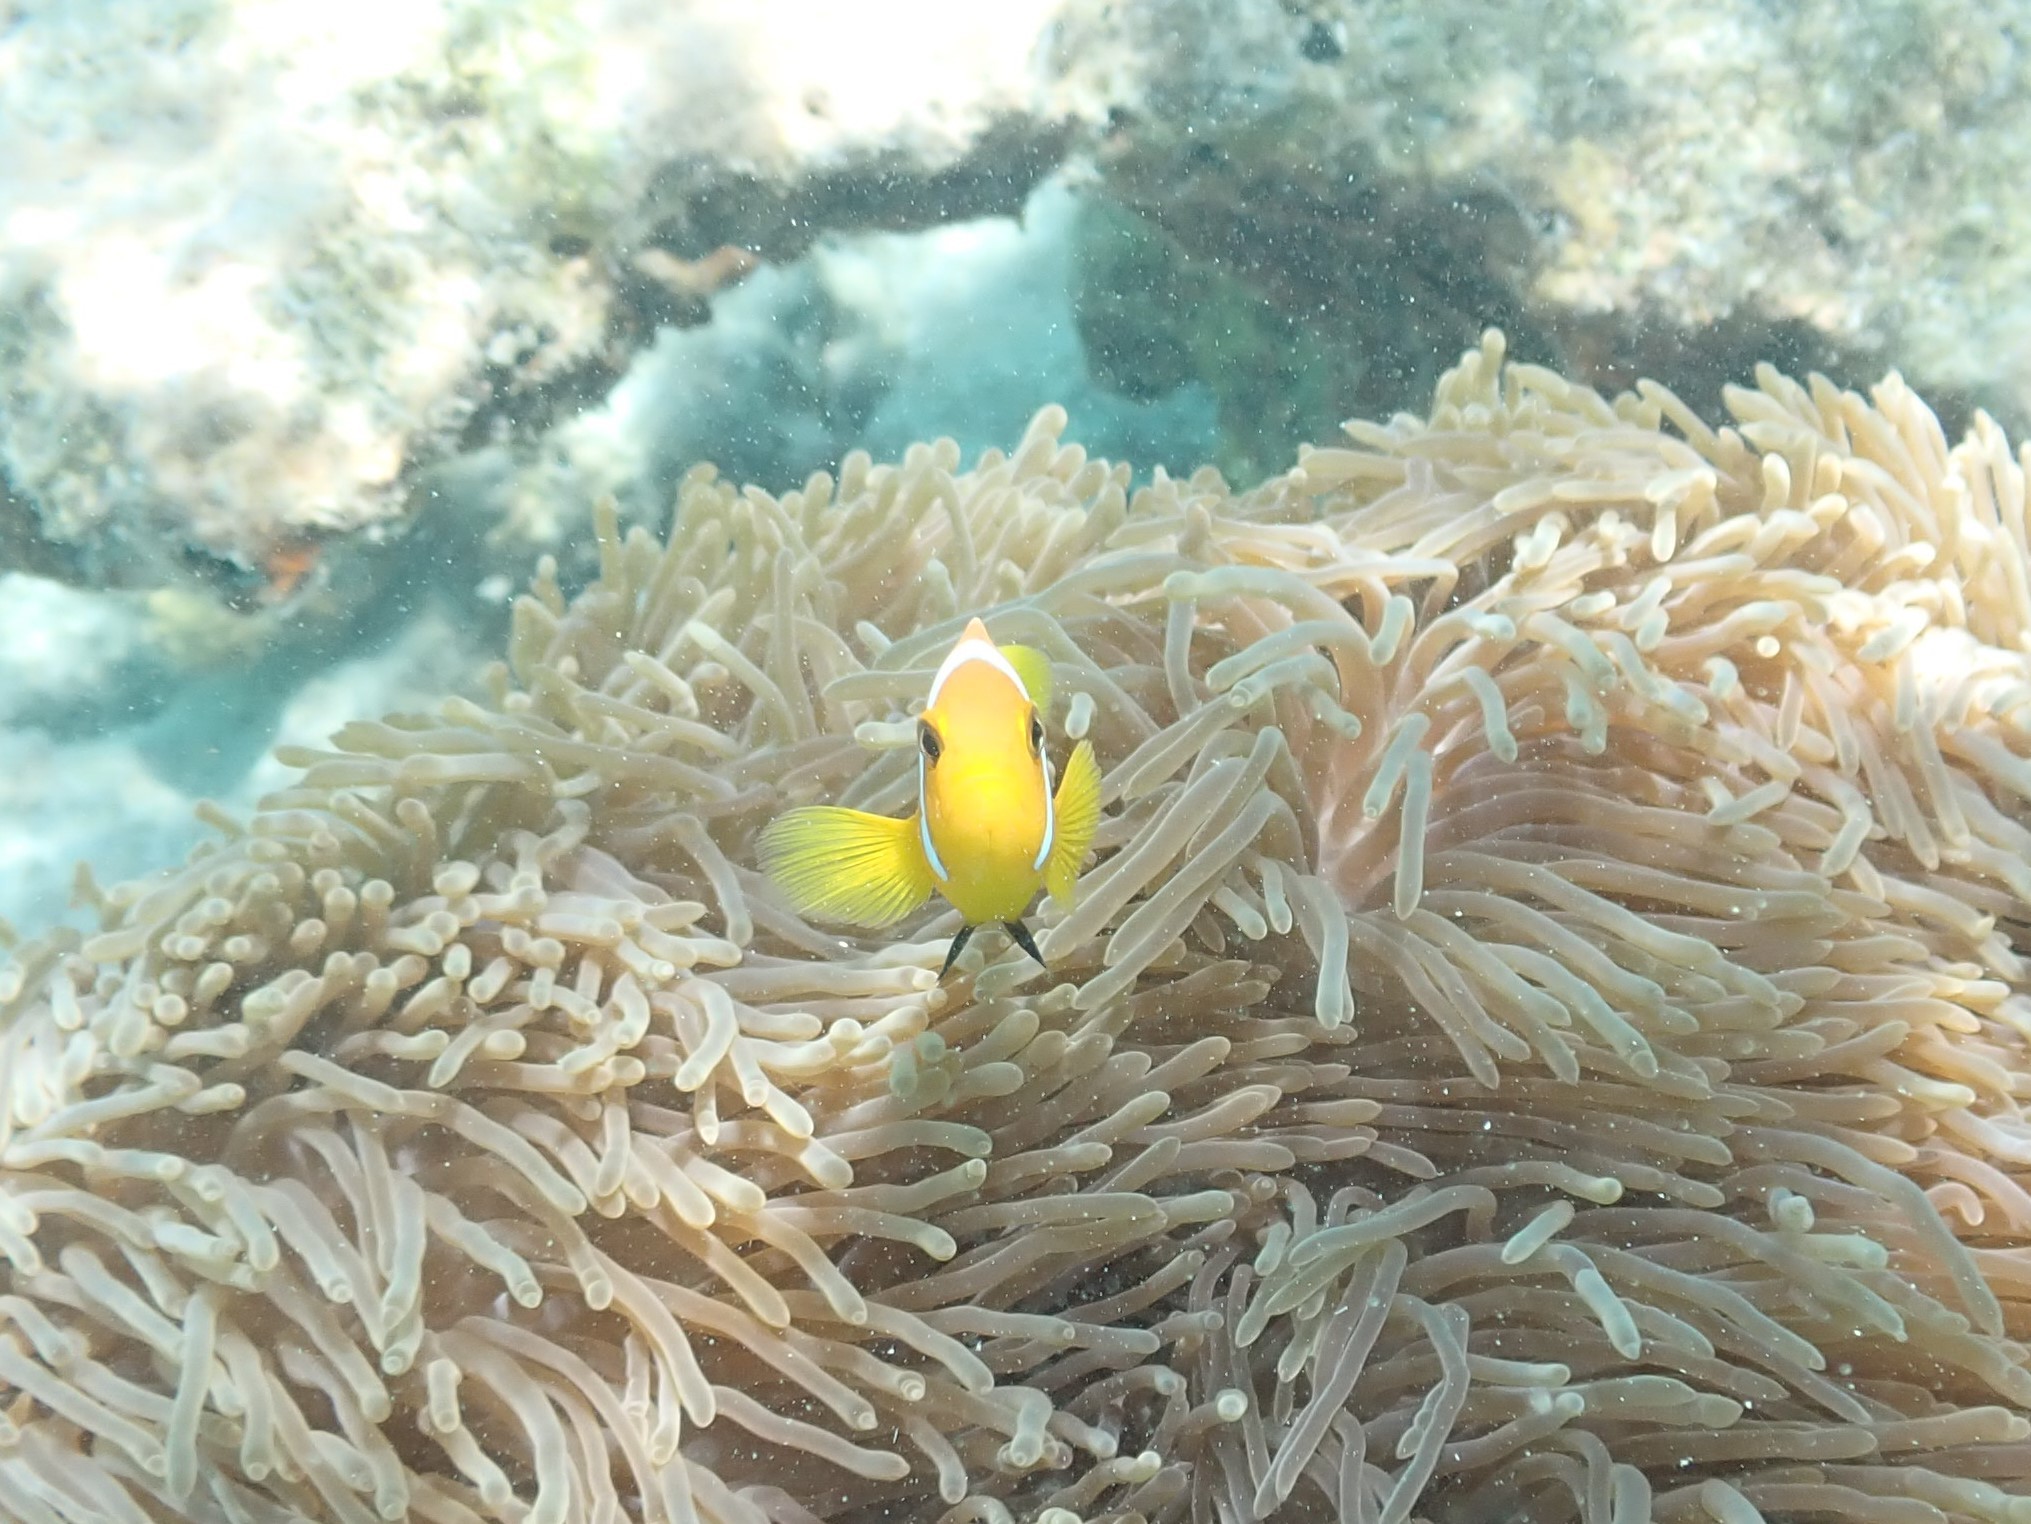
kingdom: Animalia
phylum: Chordata
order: Perciformes
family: Pomacentridae
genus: Amphiprion
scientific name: Amphiprion nigripes
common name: Maldive anemonefish
